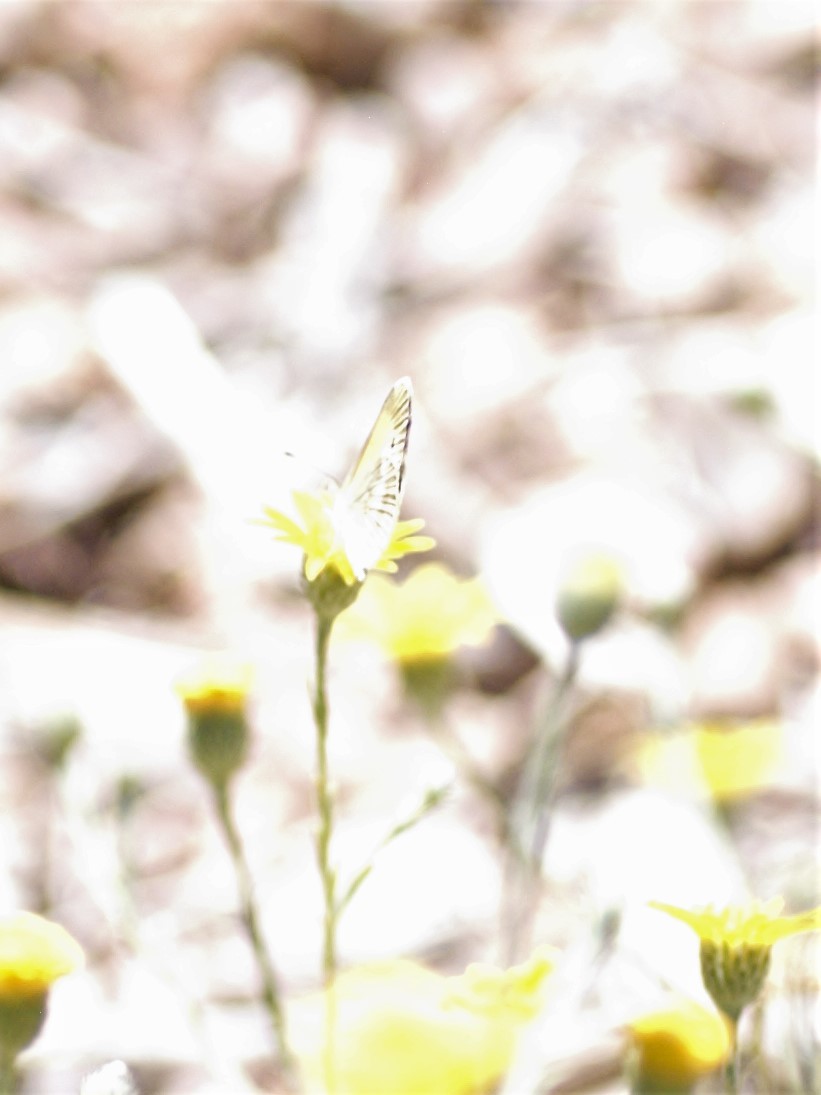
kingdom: Animalia
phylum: Arthropoda
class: Insecta
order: Lepidoptera
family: Pieridae
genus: Nathalis
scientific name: Nathalis iole
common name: Dainty sulphur
